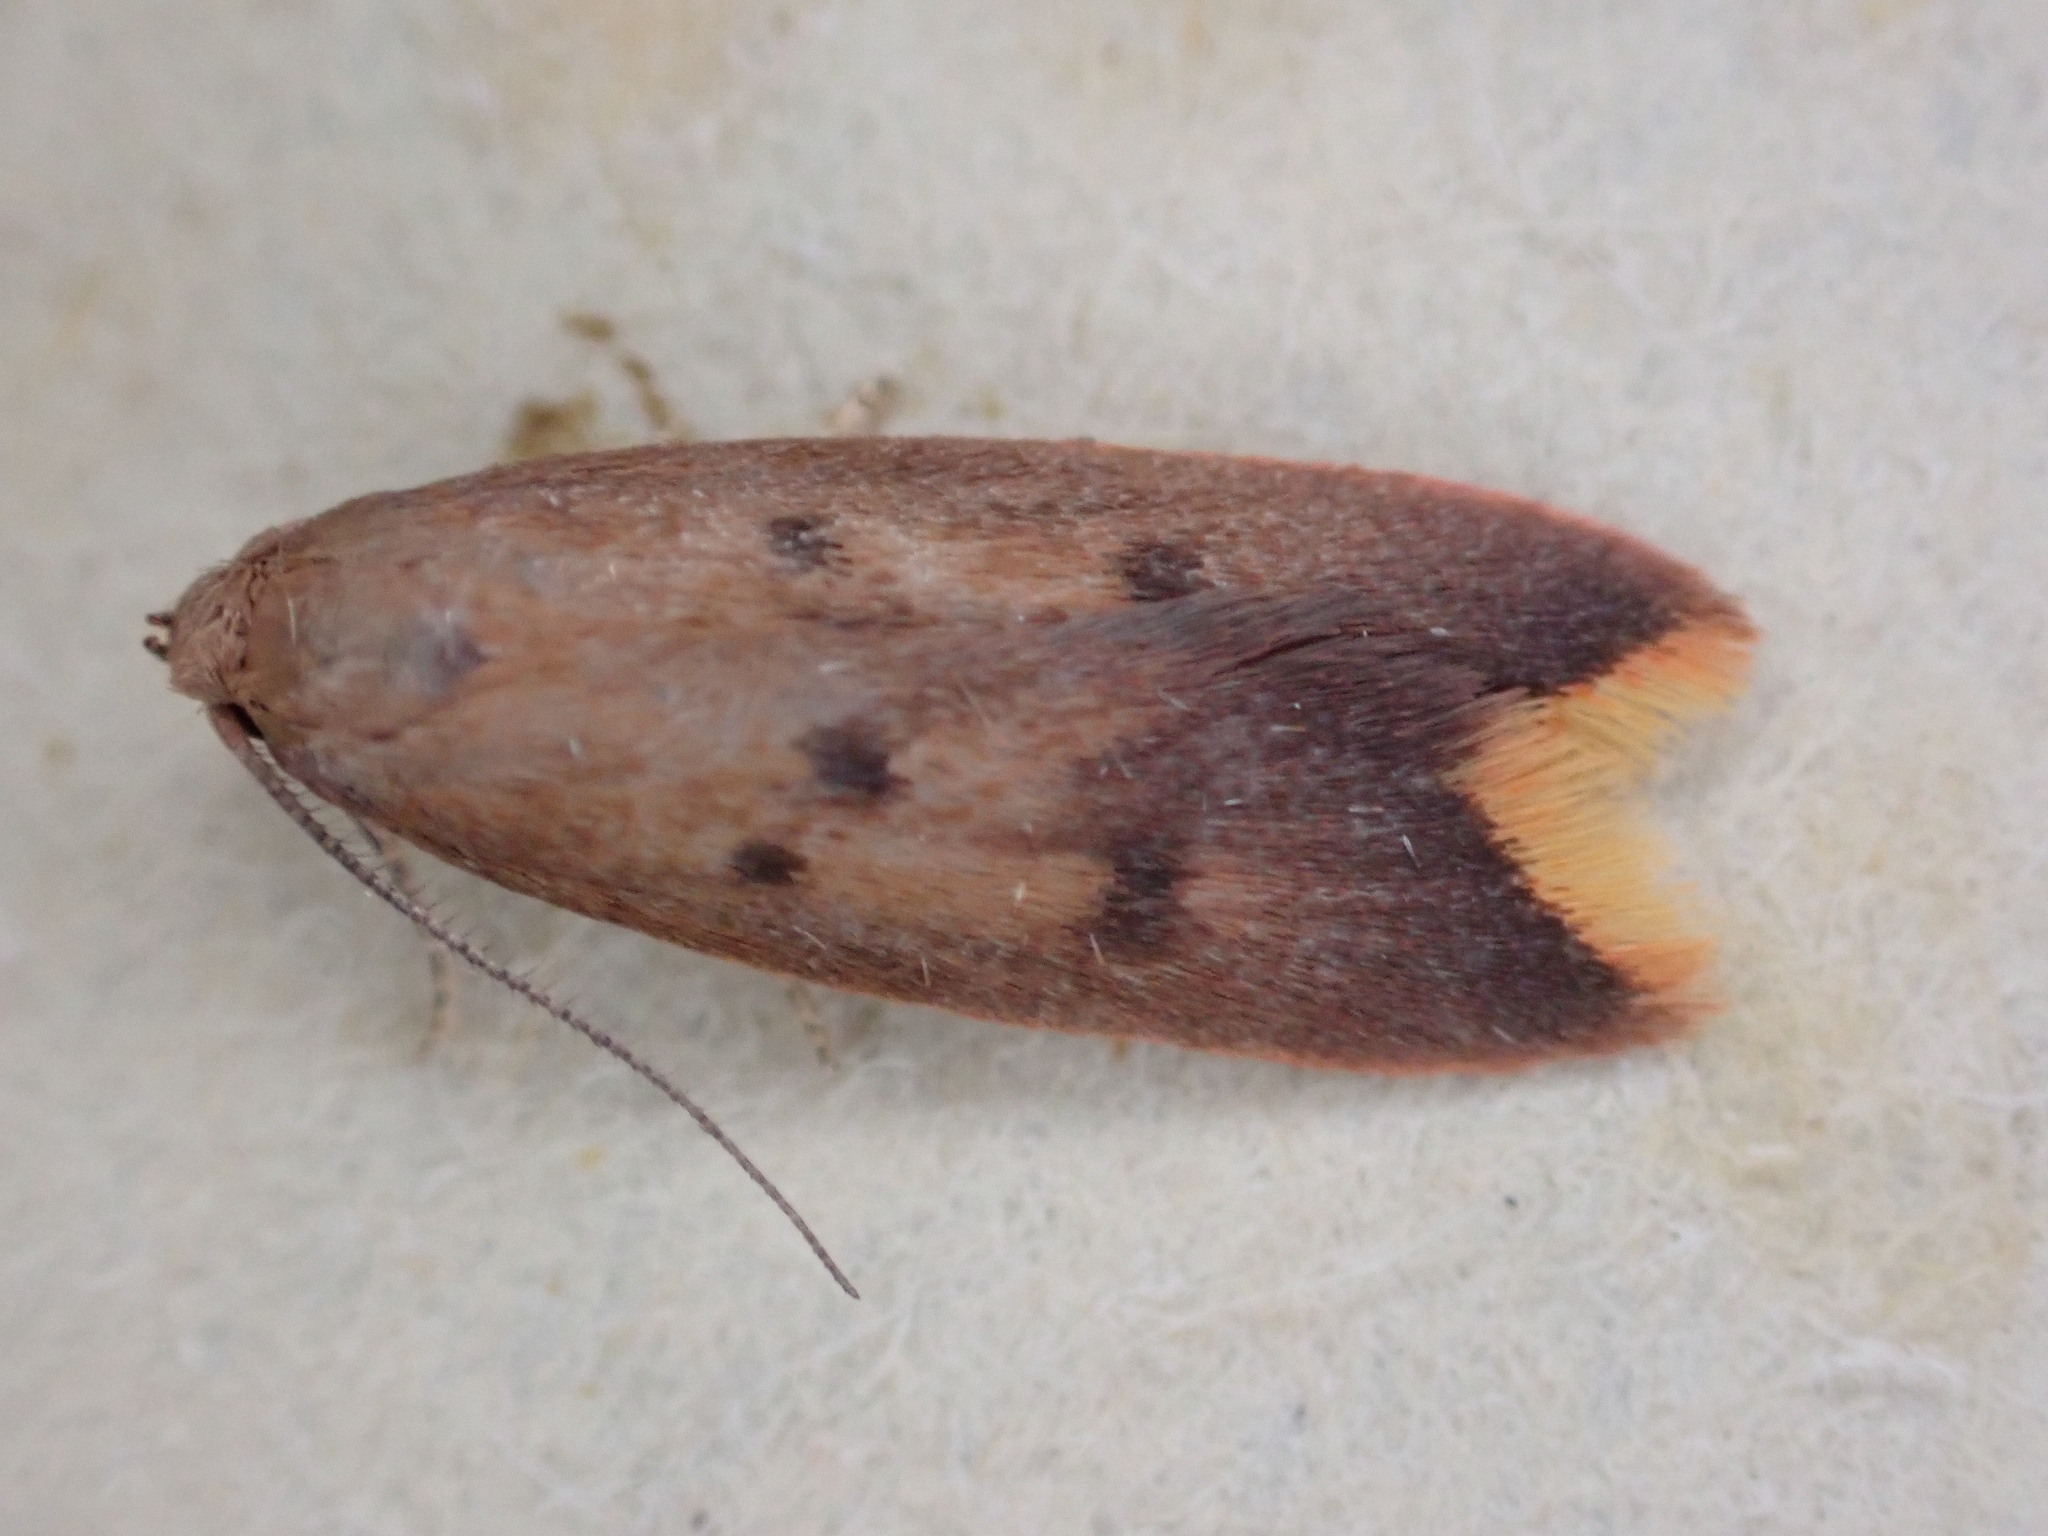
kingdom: Animalia
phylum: Arthropoda
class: Insecta
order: Lepidoptera
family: Oecophoridae
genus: Tachystola
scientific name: Tachystola acroxantha
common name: Ruddy streak
